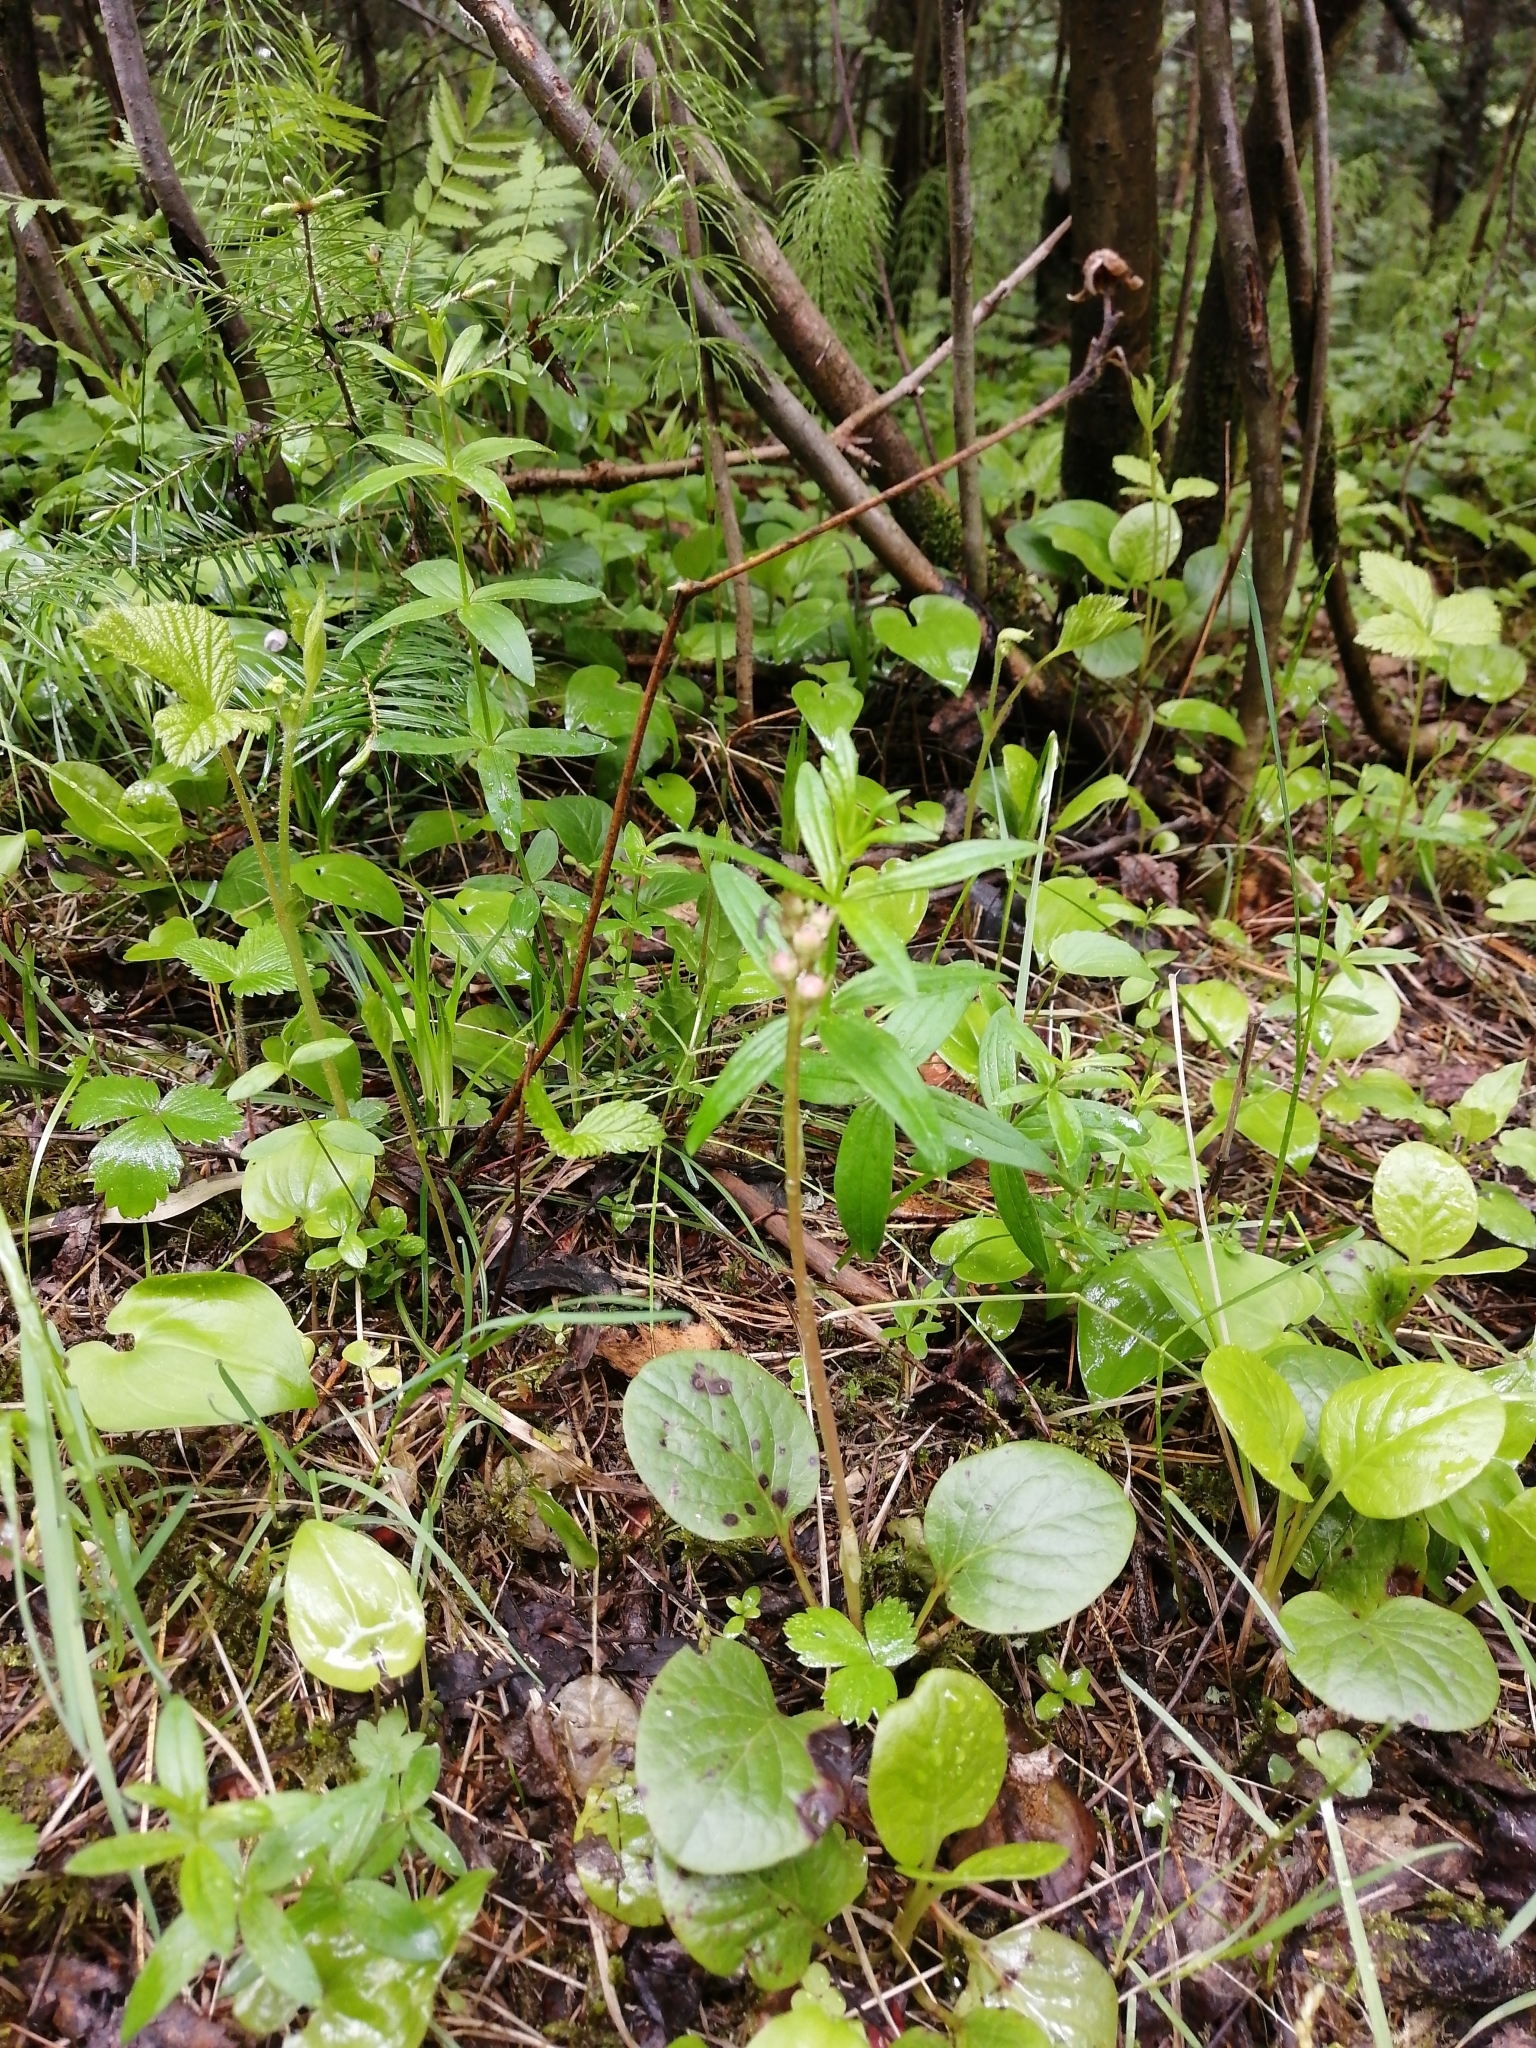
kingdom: Plantae
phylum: Tracheophyta
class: Magnoliopsida
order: Ericales
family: Ericaceae
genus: Pyrola
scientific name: Pyrola asarifolia
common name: Bog wintergreen
